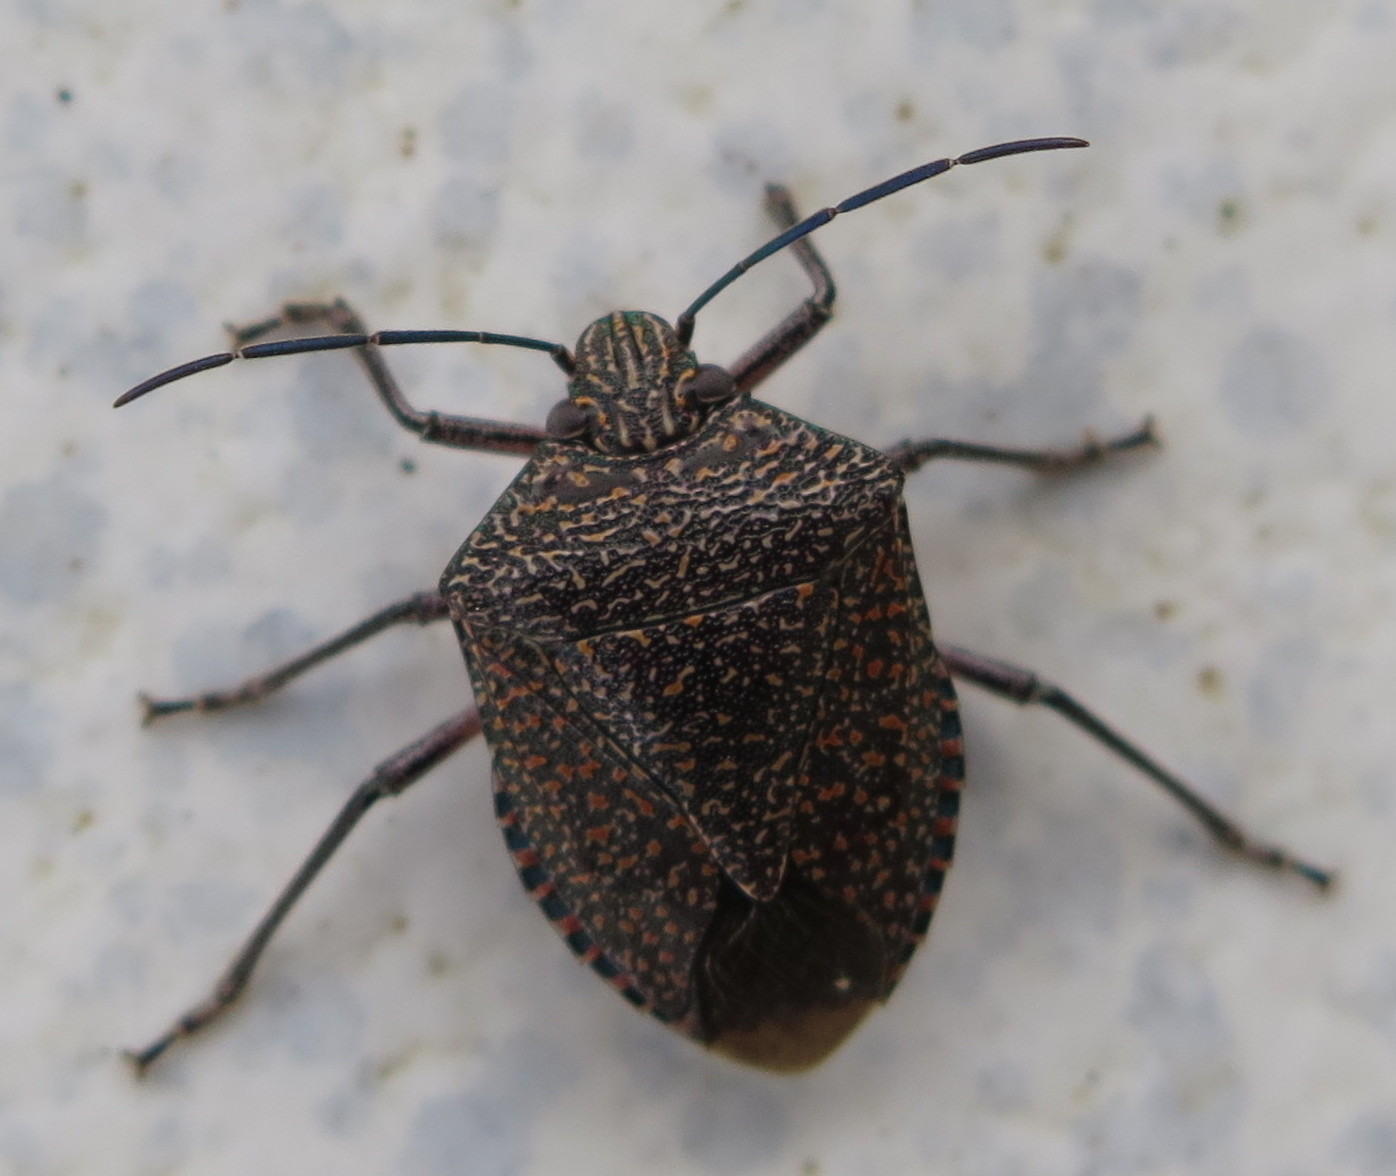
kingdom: Animalia
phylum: Arthropoda
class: Insecta
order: Hemiptera
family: Pentatomidae
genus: Pellaea
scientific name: Pellaea stictica
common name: Stink bug
